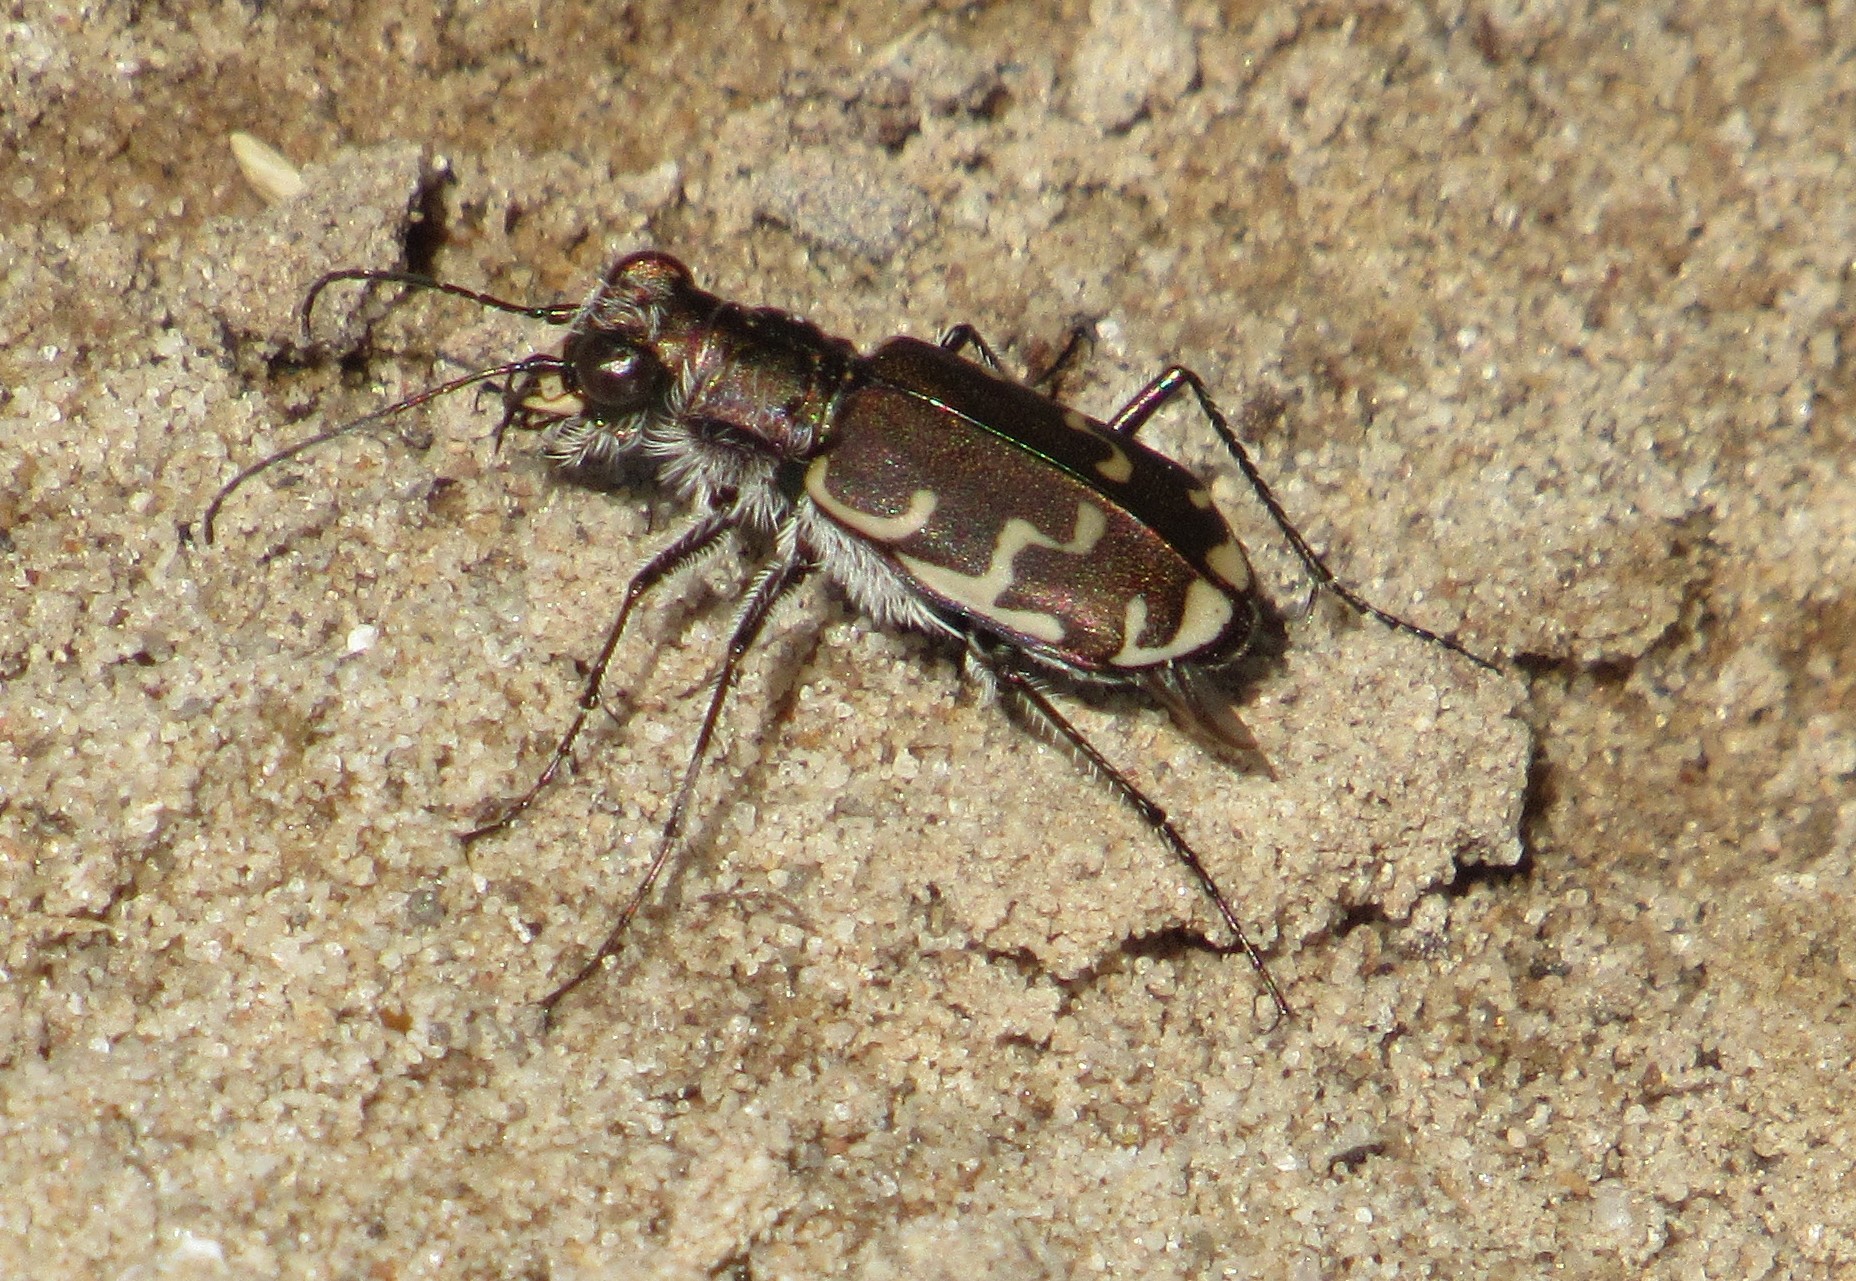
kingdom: Animalia
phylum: Arthropoda
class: Insecta
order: Coleoptera
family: Carabidae
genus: Cicindela
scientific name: Cicindela repanda
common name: Bronzed tiger beetle
